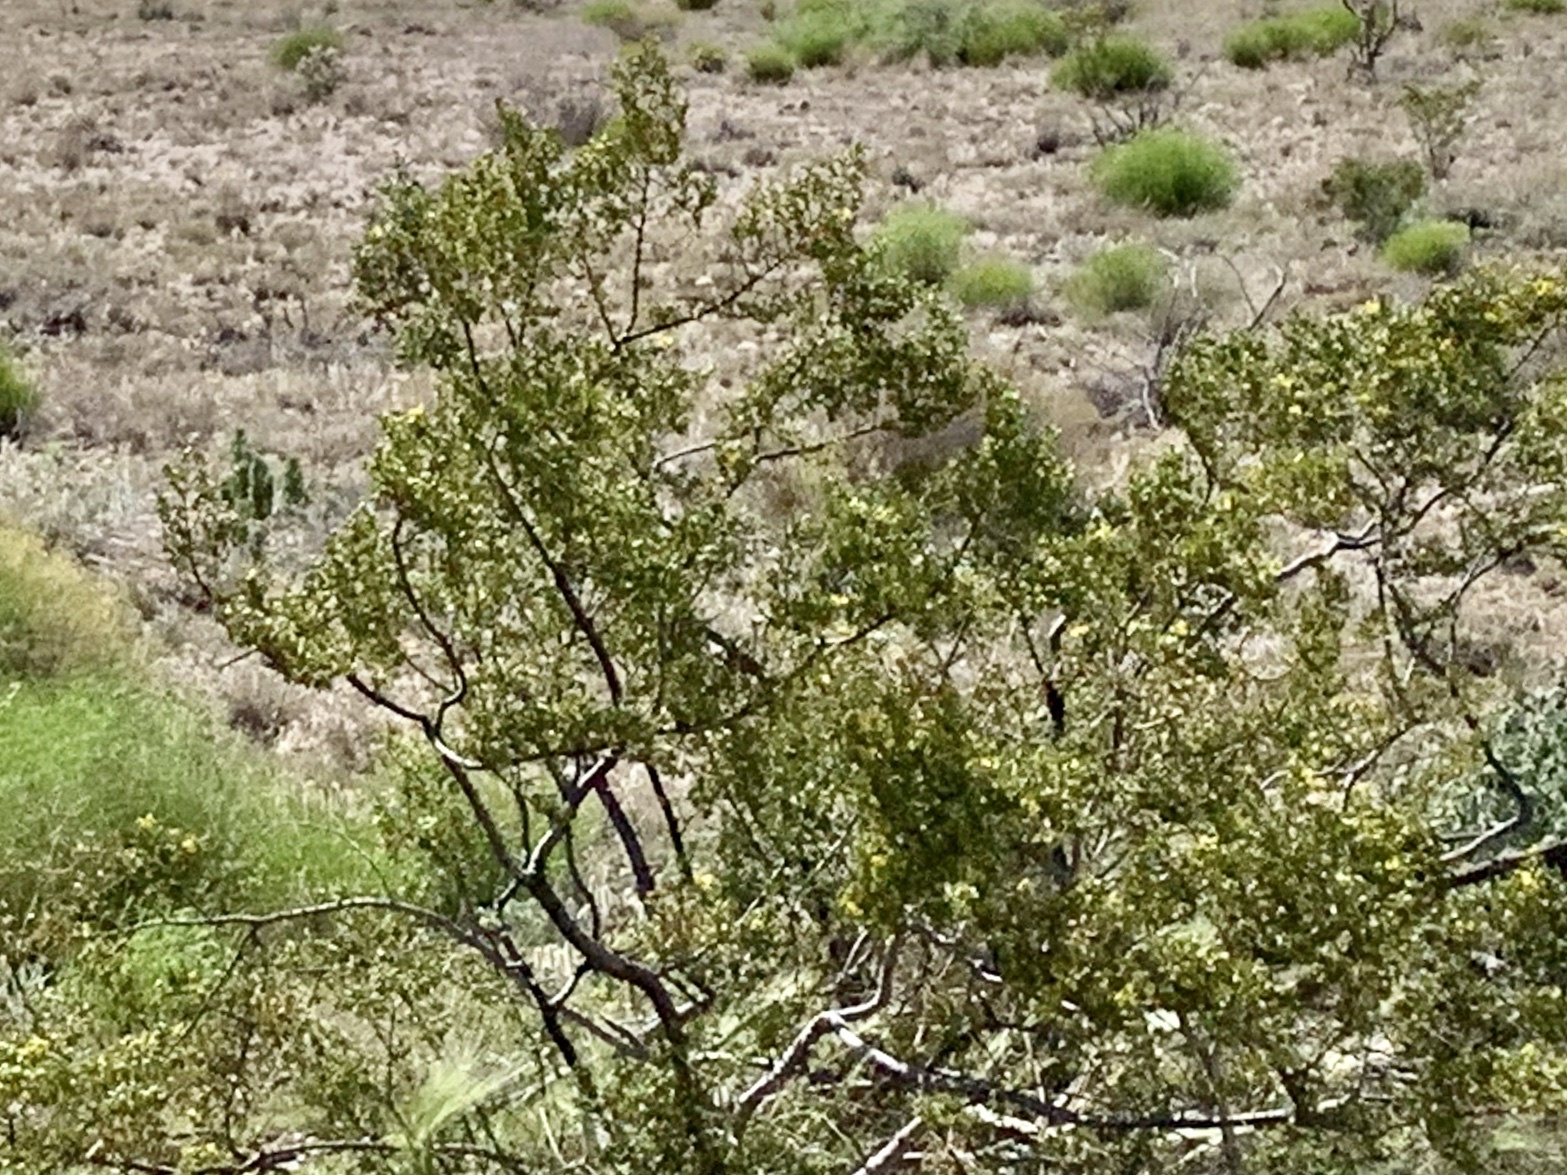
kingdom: Plantae
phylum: Tracheophyta
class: Magnoliopsida
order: Zygophyllales
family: Zygophyllaceae
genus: Larrea
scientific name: Larrea tridentata
